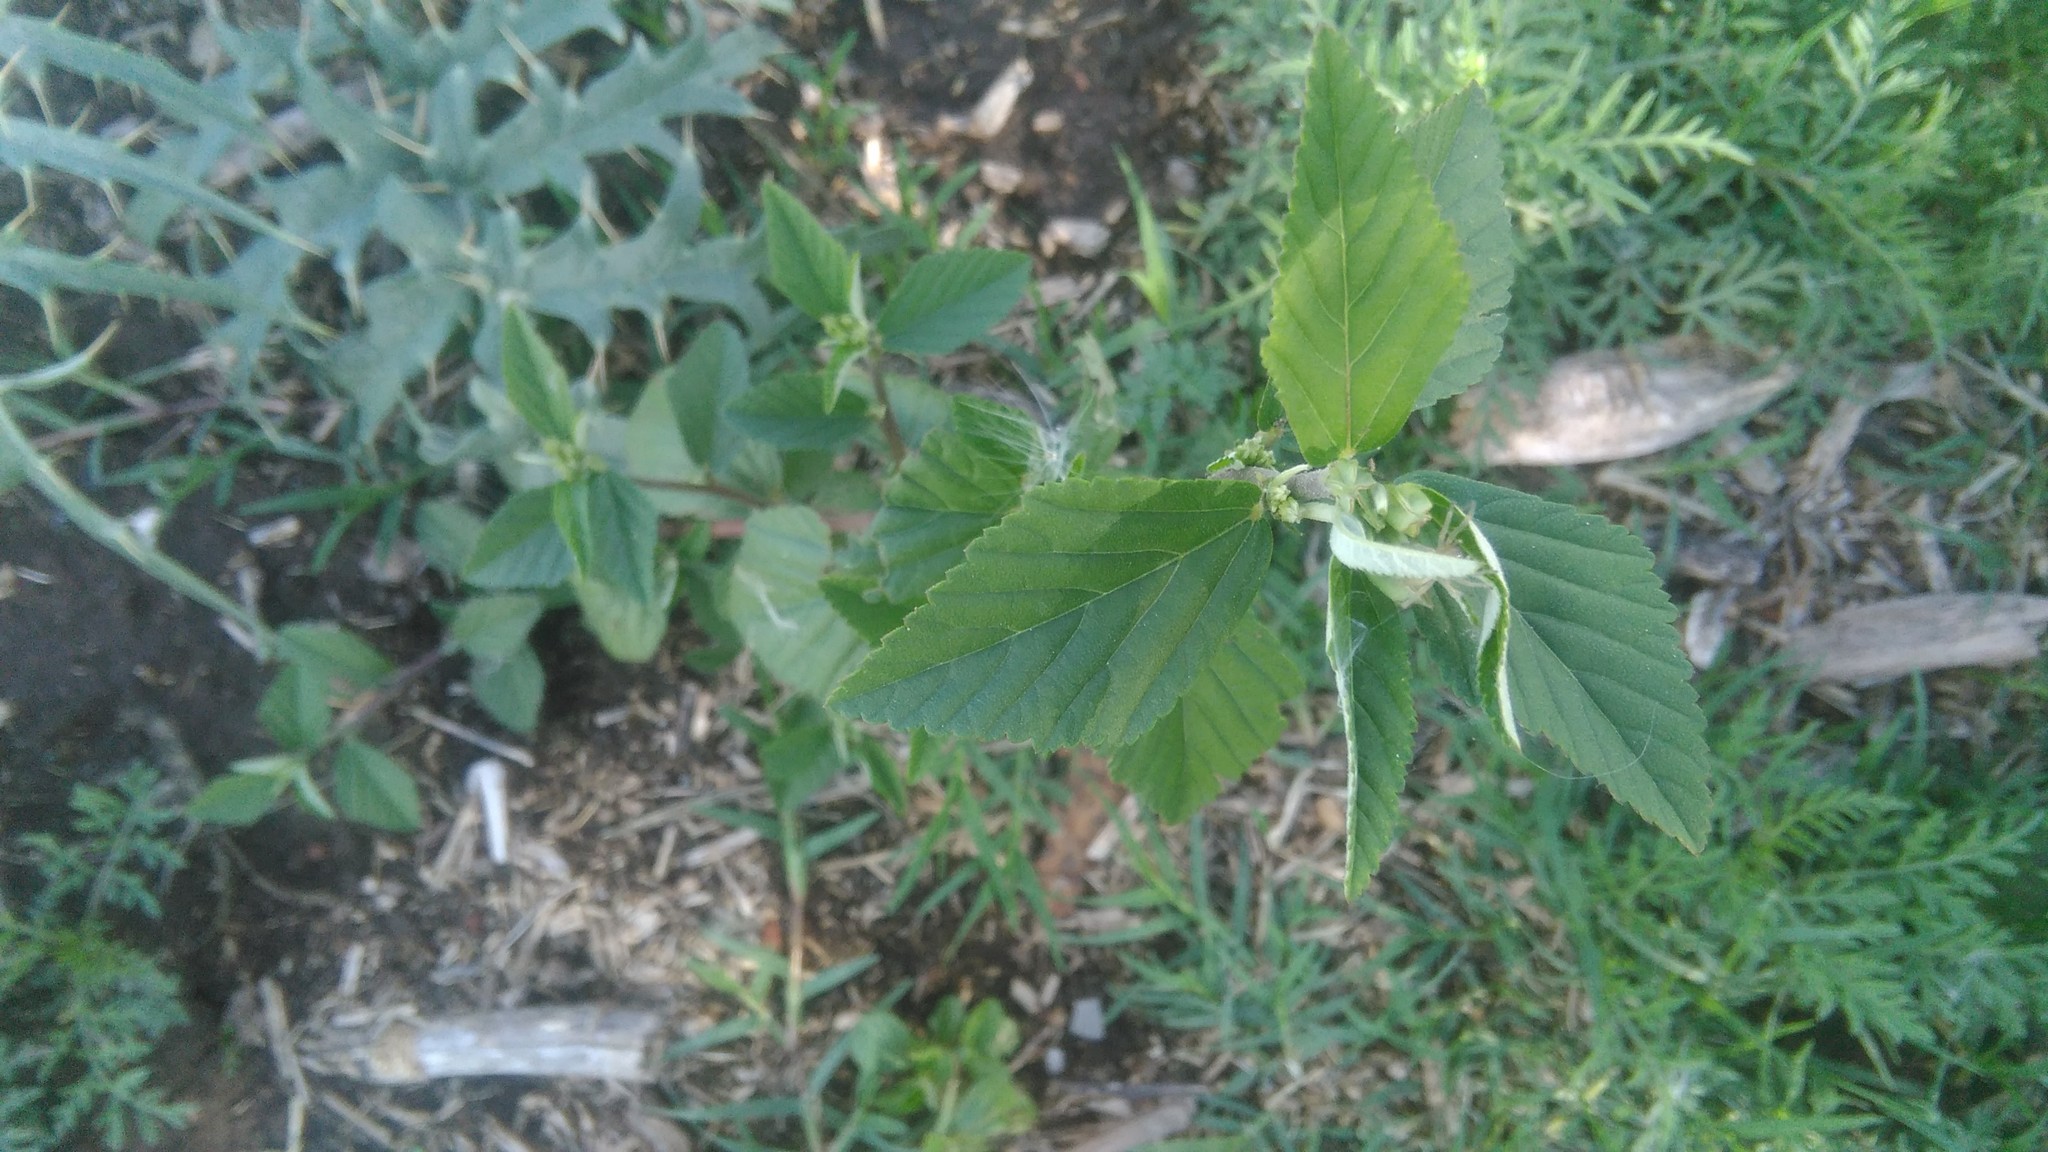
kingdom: Plantae
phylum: Tracheophyta
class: Magnoliopsida
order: Malvales
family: Malvaceae
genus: Malvastrum
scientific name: Malvastrum coromandelianum
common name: Threelobe false mallow
